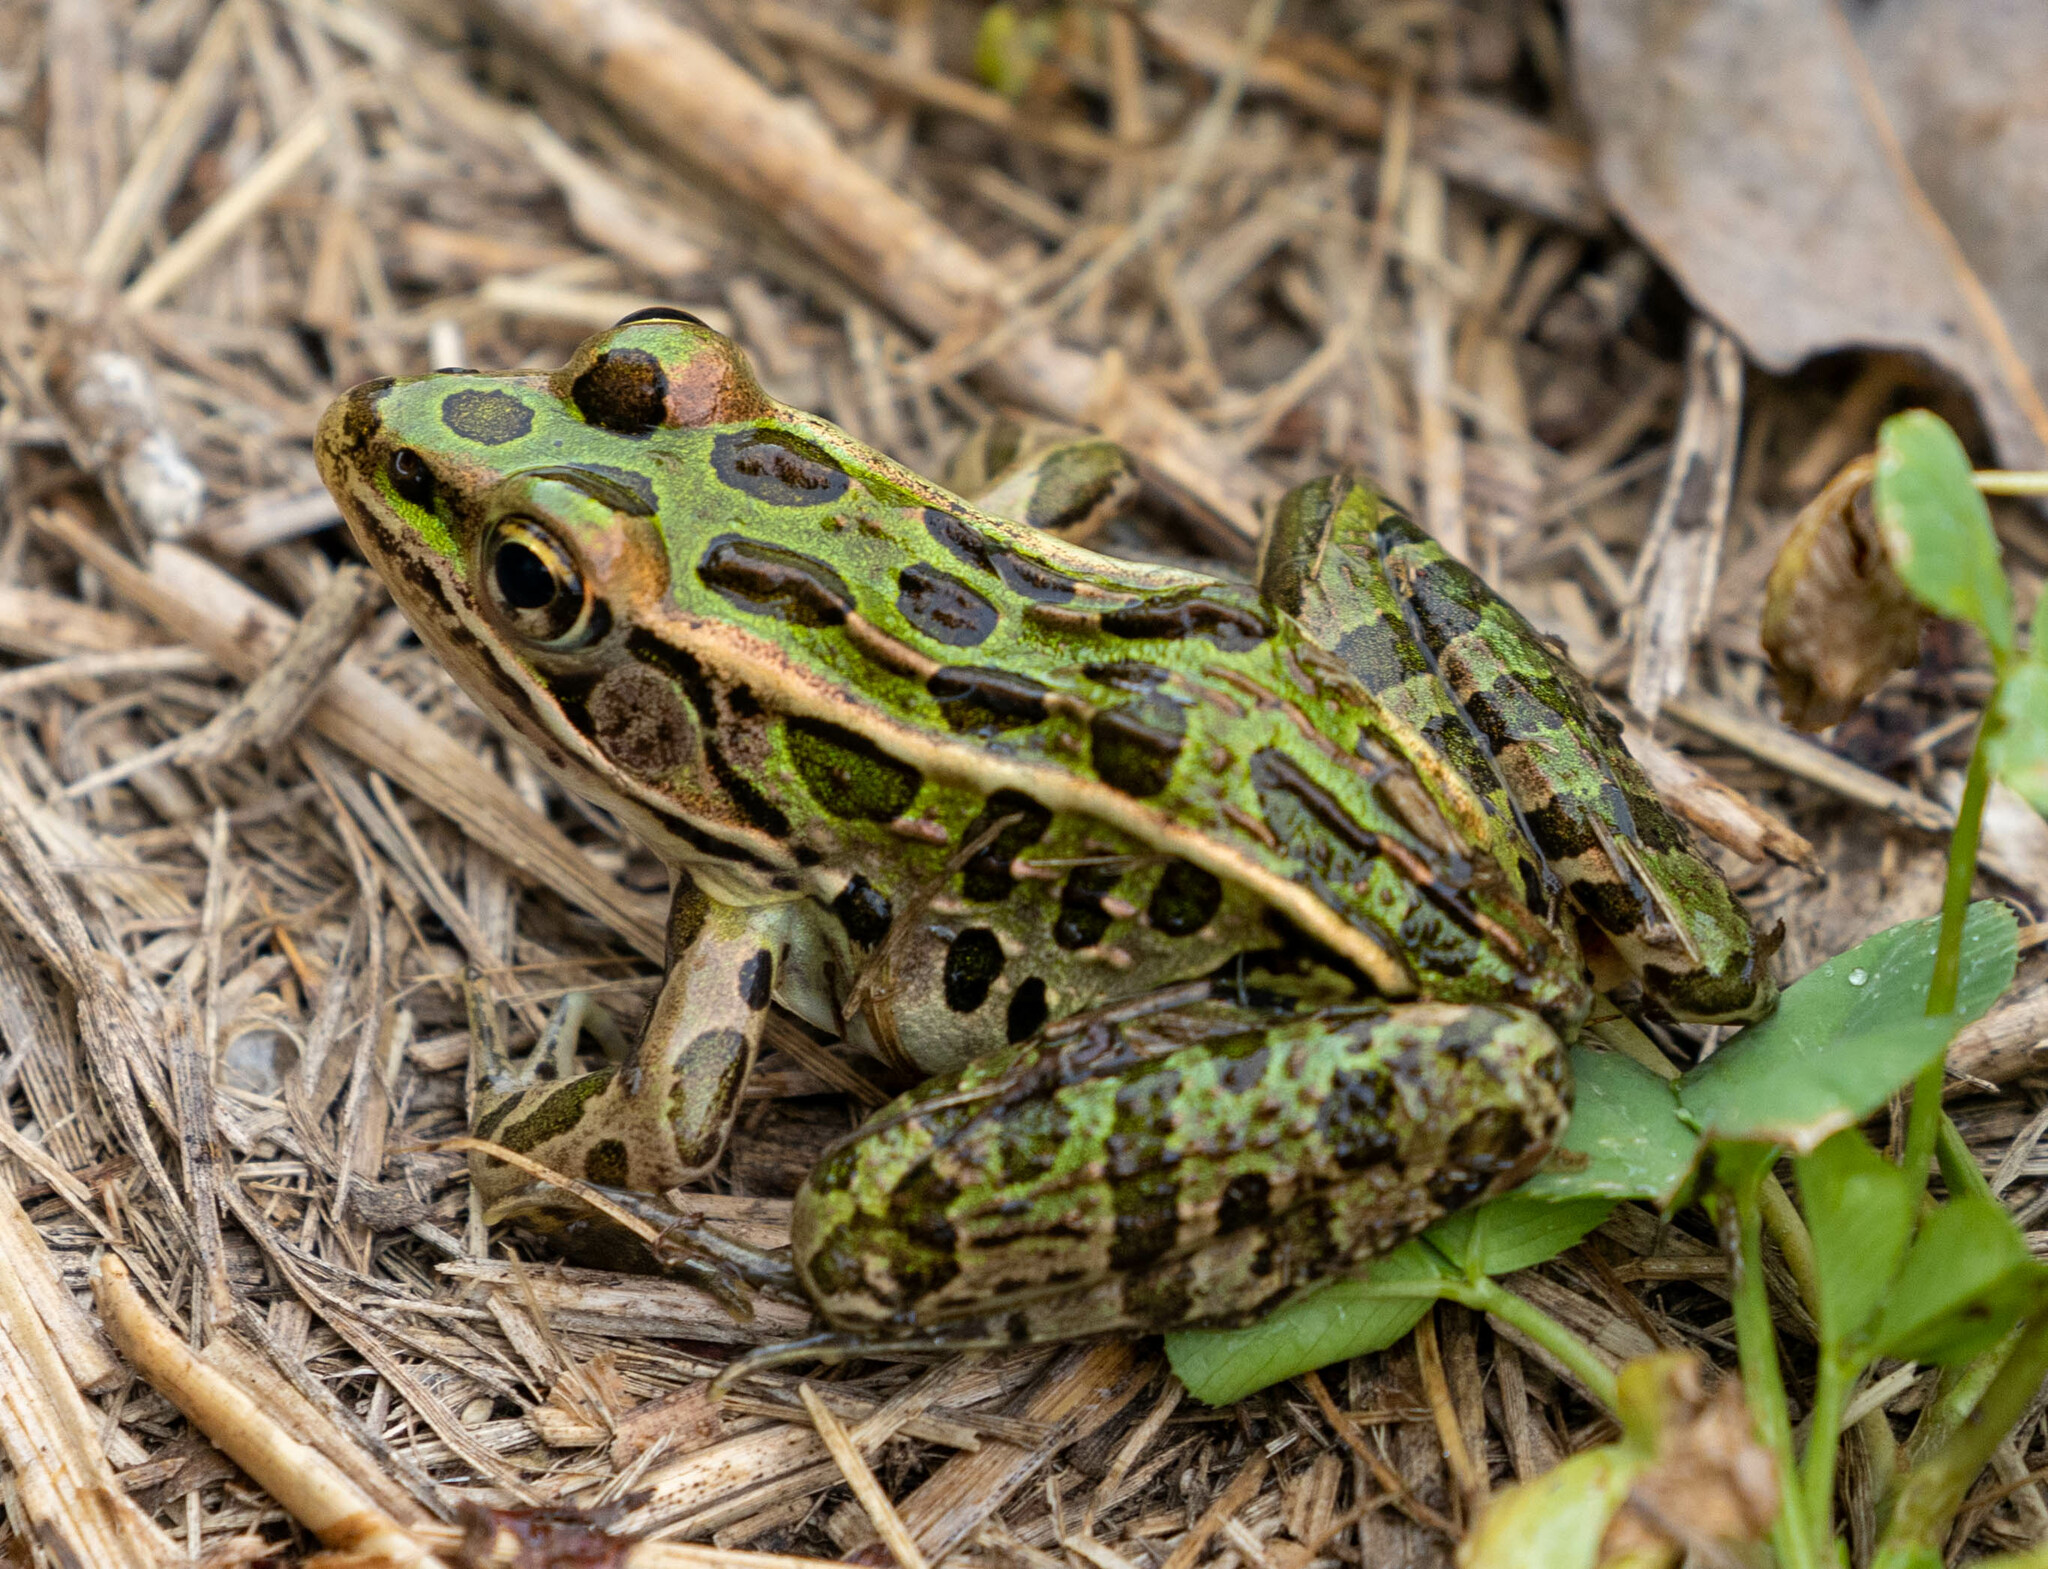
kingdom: Animalia
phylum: Chordata
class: Amphibia
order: Anura
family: Ranidae
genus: Lithobates
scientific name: Lithobates pipiens
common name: Northern leopard frog
